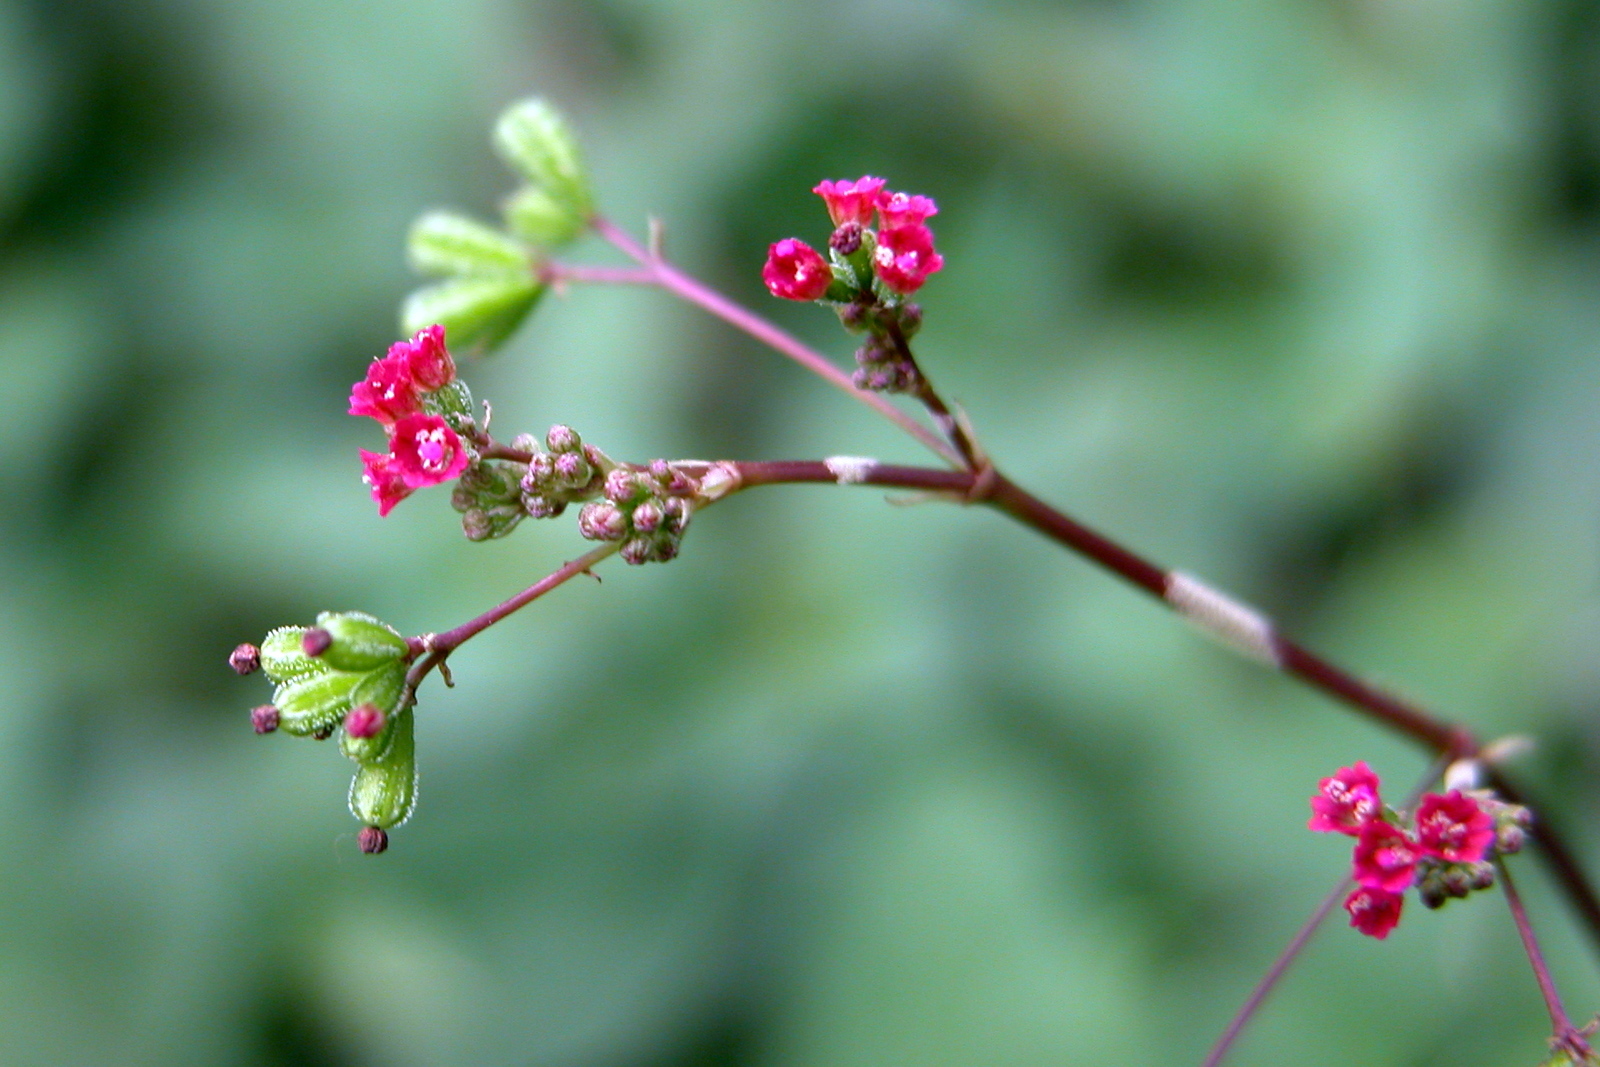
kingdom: Plantae
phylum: Tracheophyta
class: Magnoliopsida
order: Caryophyllales
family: Nyctaginaceae
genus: Boerhavia
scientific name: Boerhavia diffusa
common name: Red spiderling
